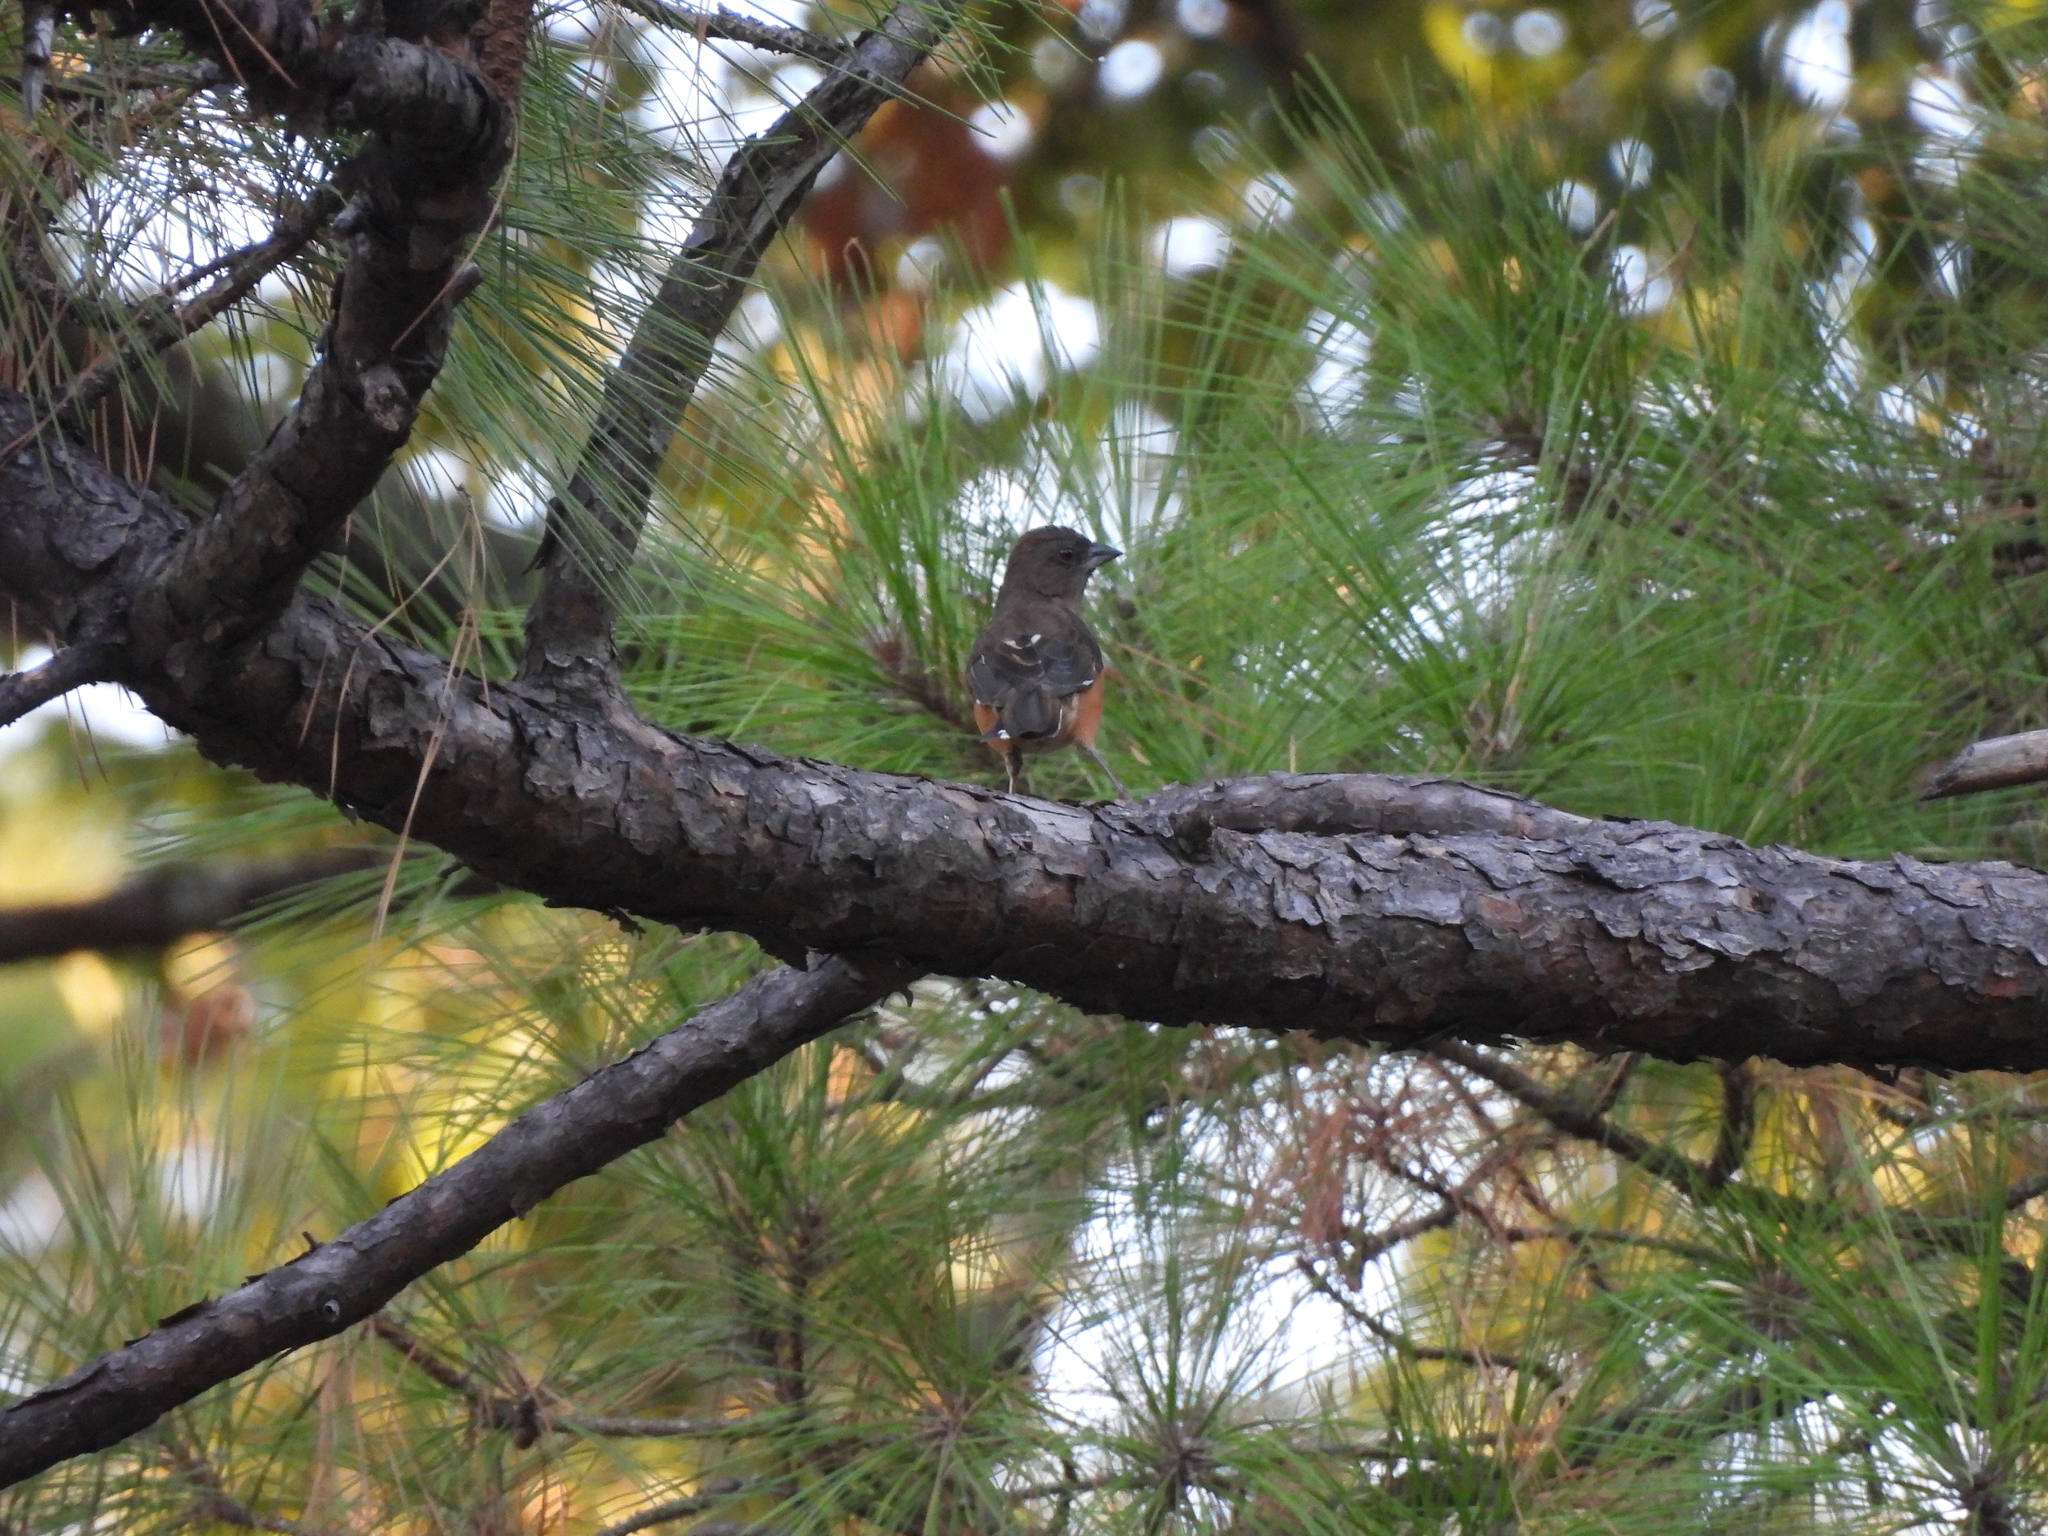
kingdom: Animalia
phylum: Chordata
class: Aves
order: Passeriformes
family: Passerellidae
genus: Pipilo
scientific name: Pipilo erythrophthalmus
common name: Eastern towhee
